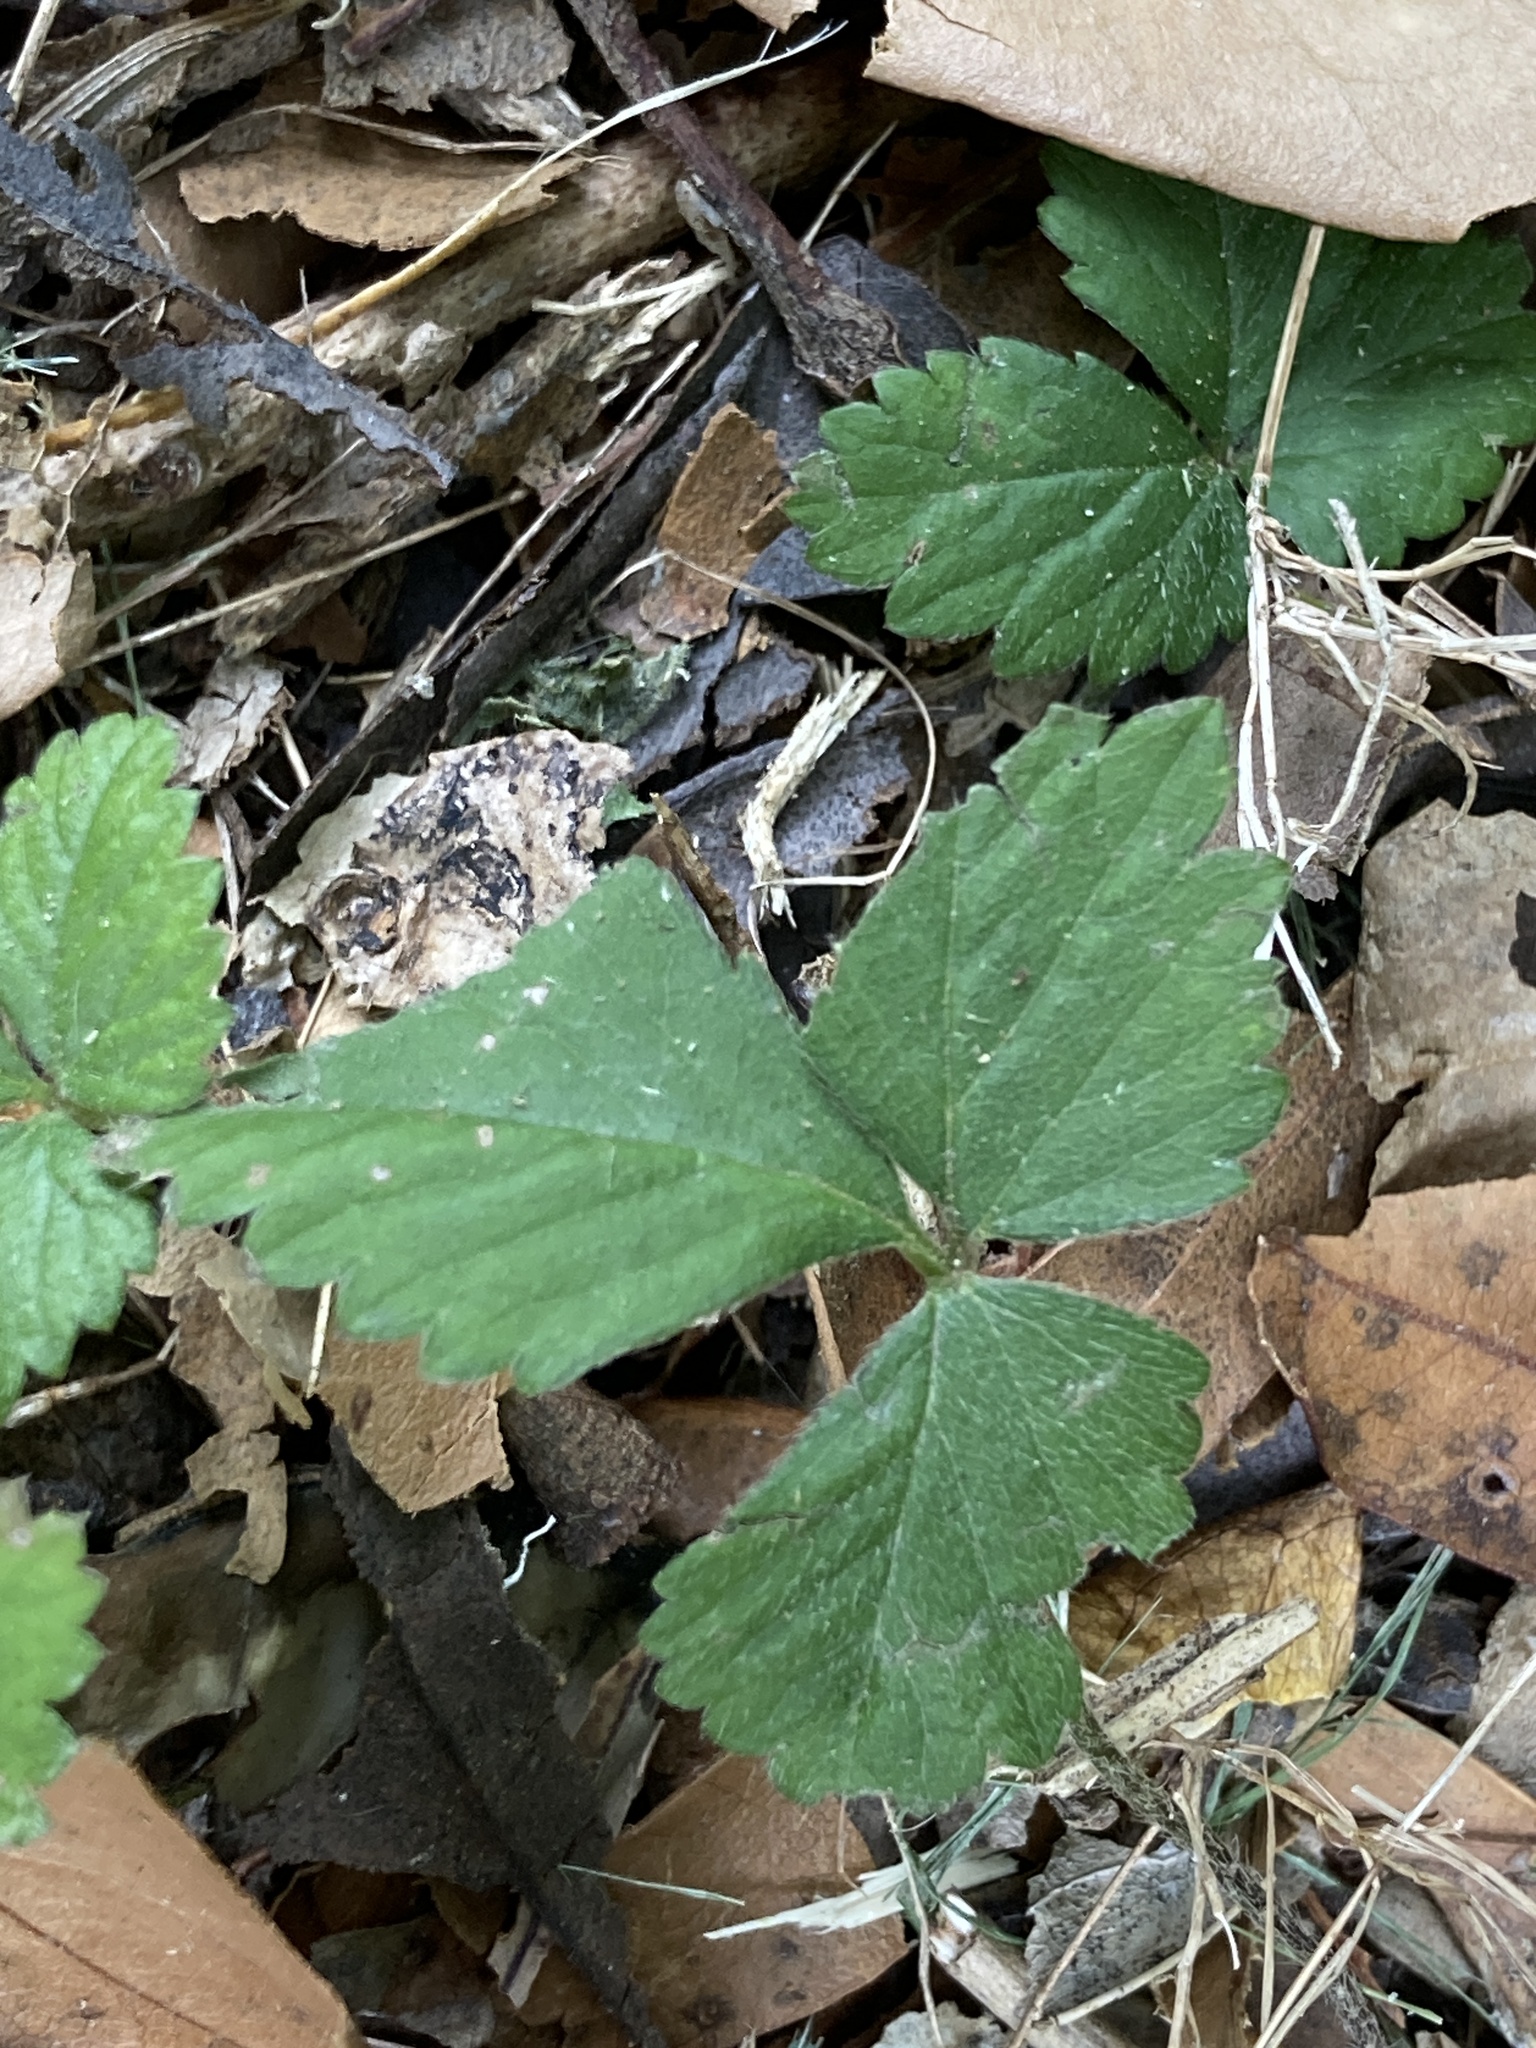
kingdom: Plantae
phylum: Tracheophyta
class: Magnoliopsida
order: Rosales
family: Rosaceae
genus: Potentilla
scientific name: Potentilla indica
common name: Yellow-flowered strawberry
